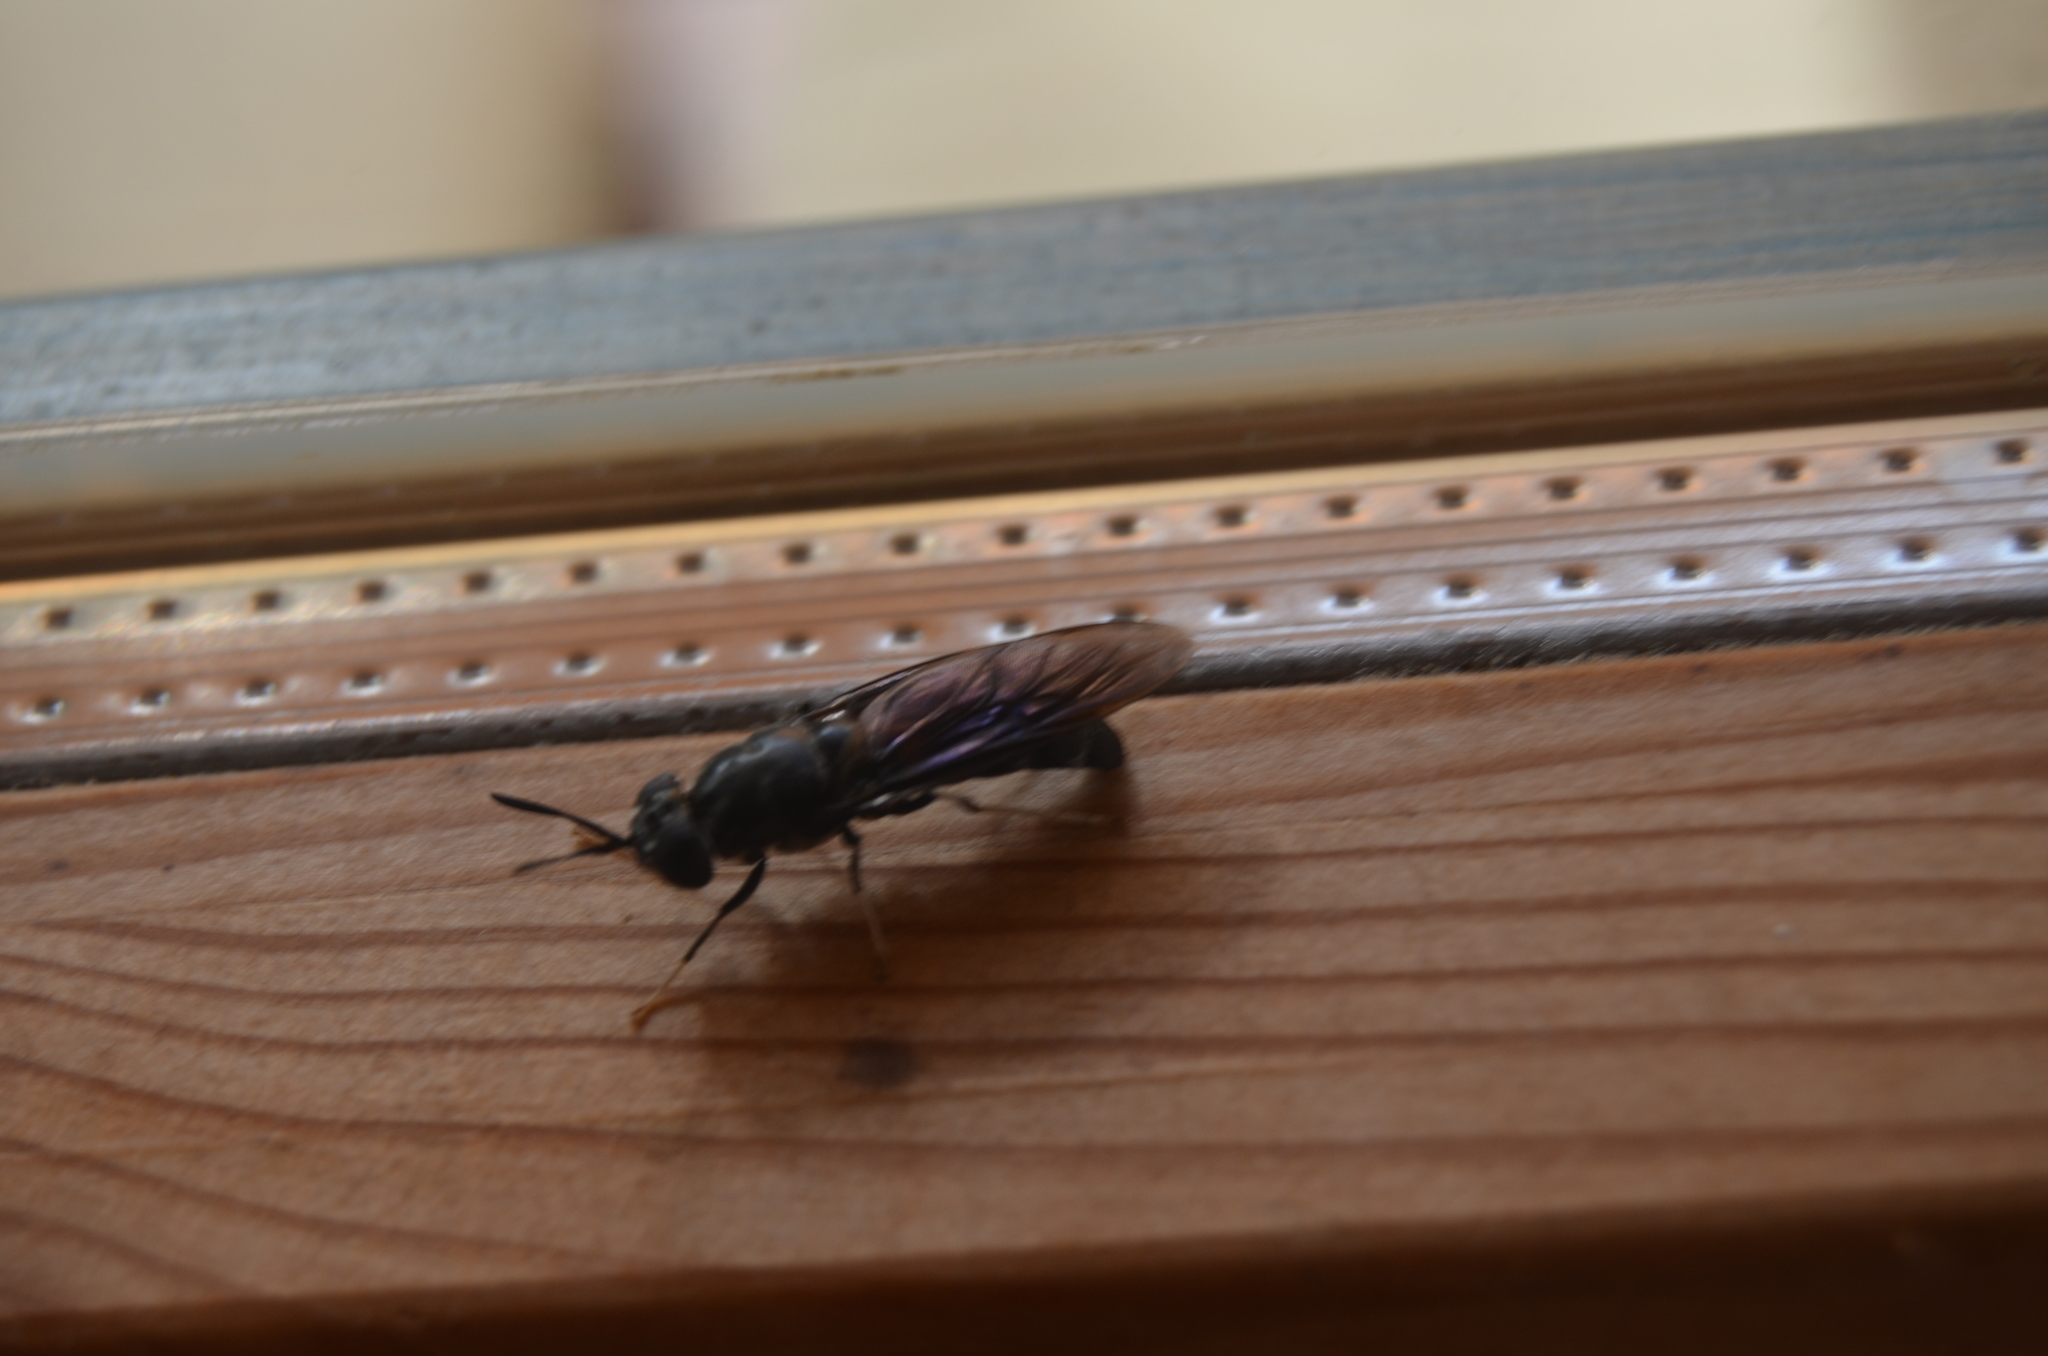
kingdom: Animalia
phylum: Arthropoda
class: Insecta
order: Diptera
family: Stratiomyidae
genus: Hermetia
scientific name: Hermetia illucens
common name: Black soldier fly
